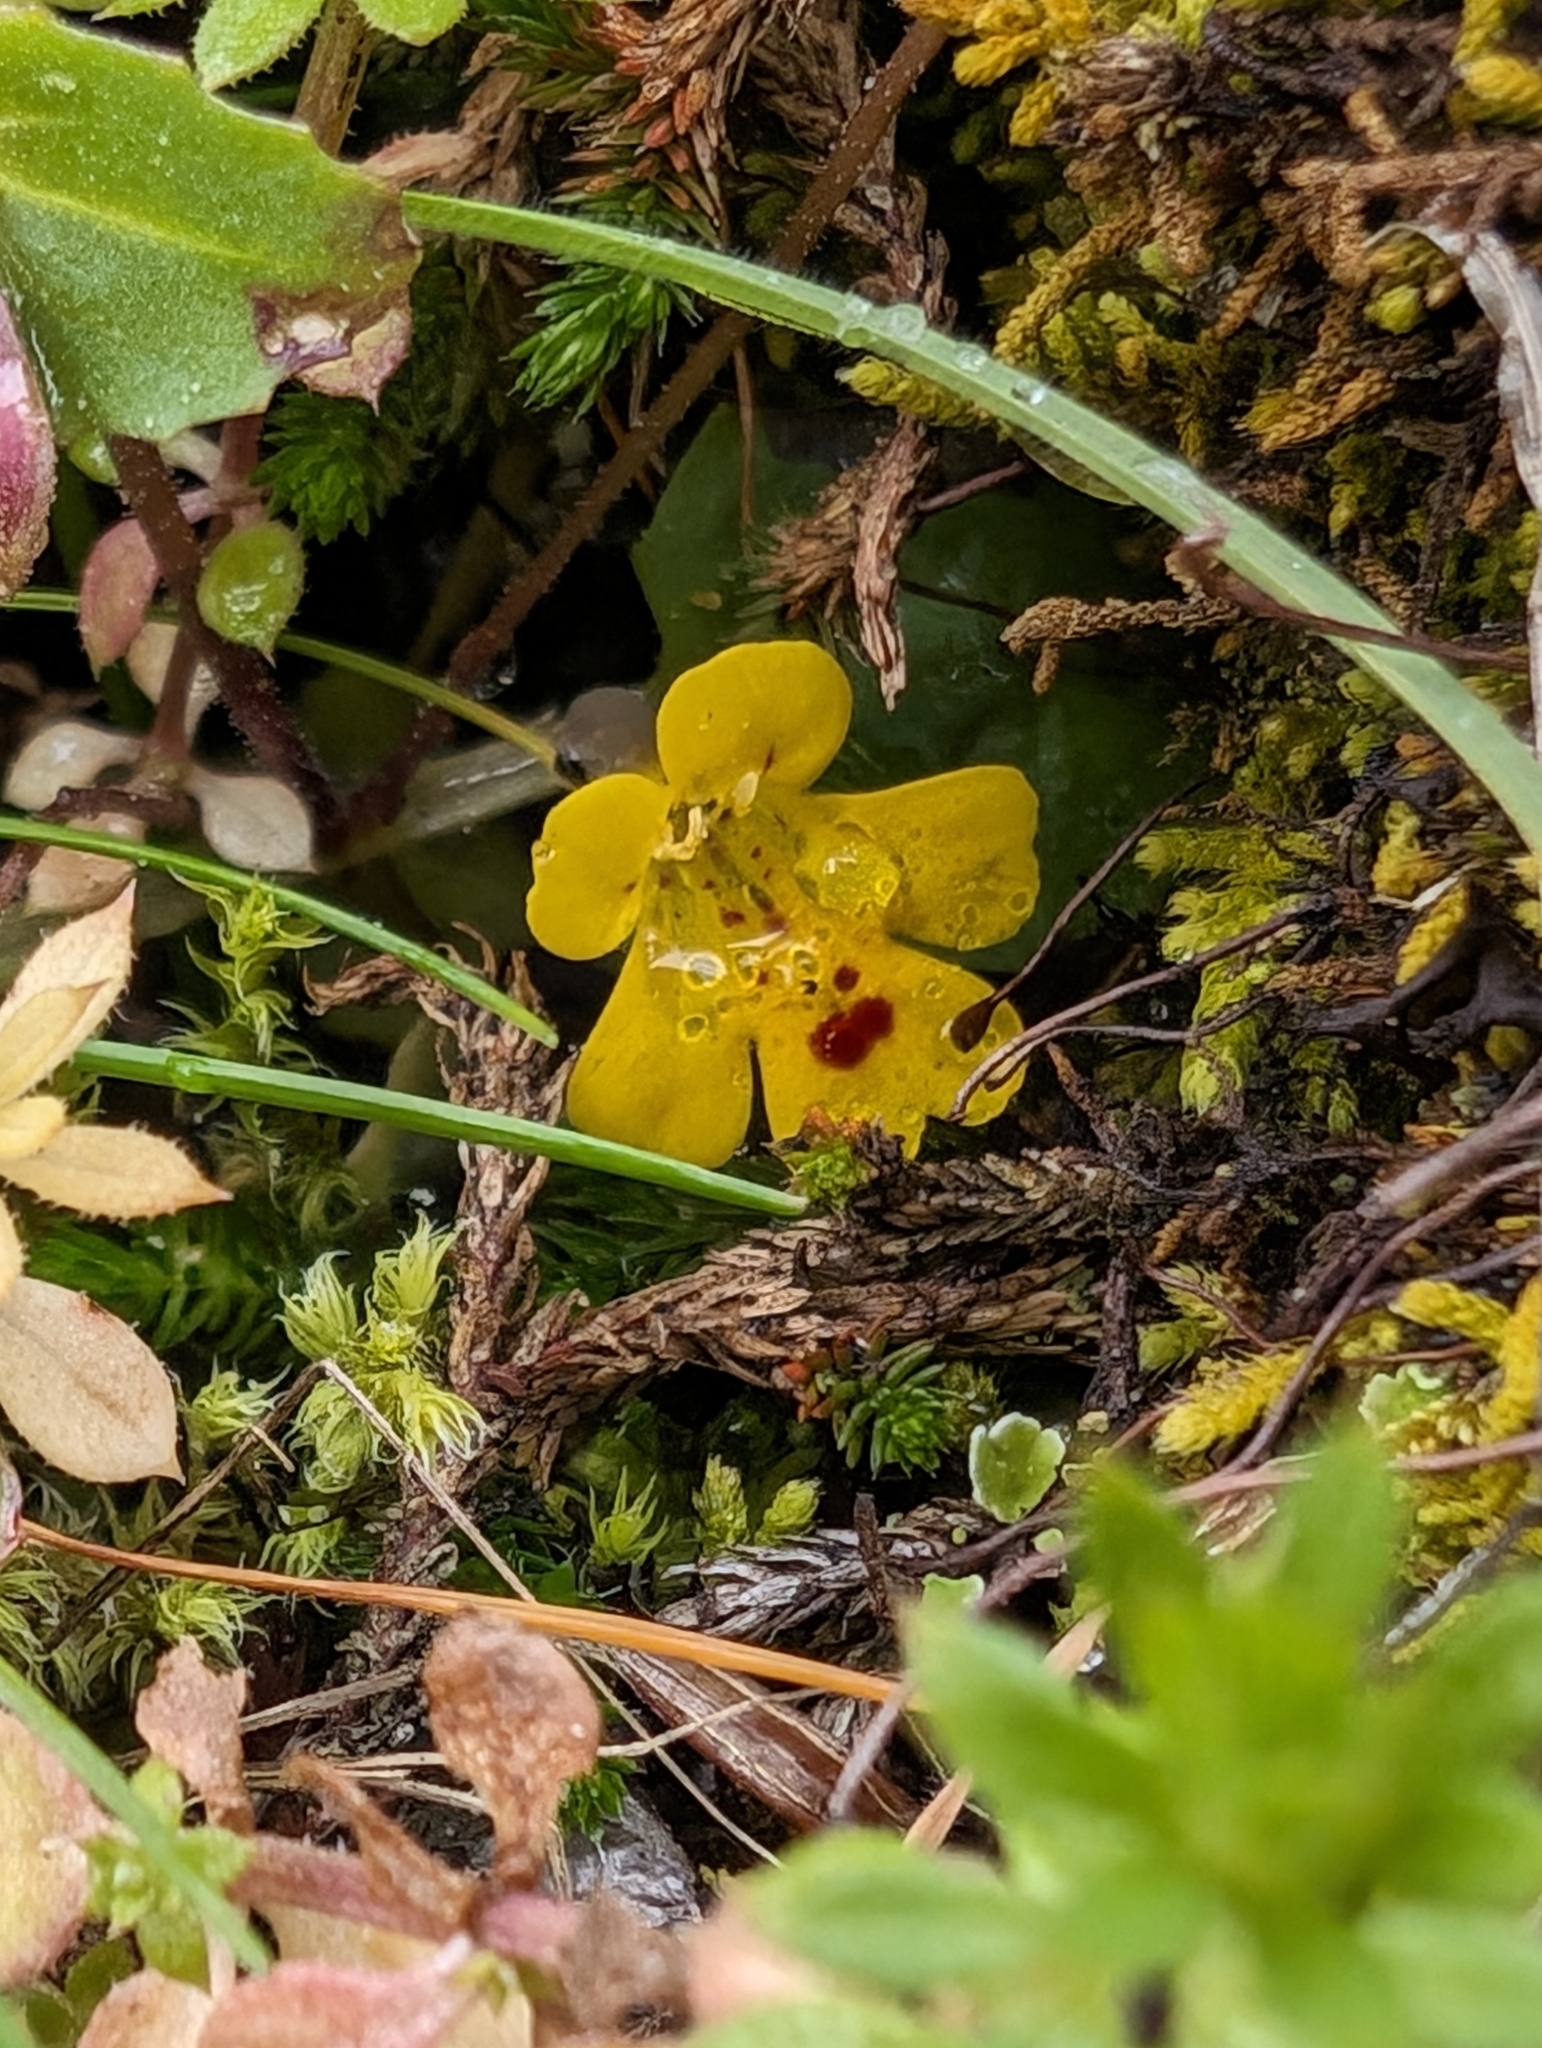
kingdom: Plantae
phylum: Tracheophyta
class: Magnoliopsida
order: Lamiales
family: Phrymaceae
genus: Erythranthe
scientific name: Erythranthe alsinoides
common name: Chickweed monkeyflower
